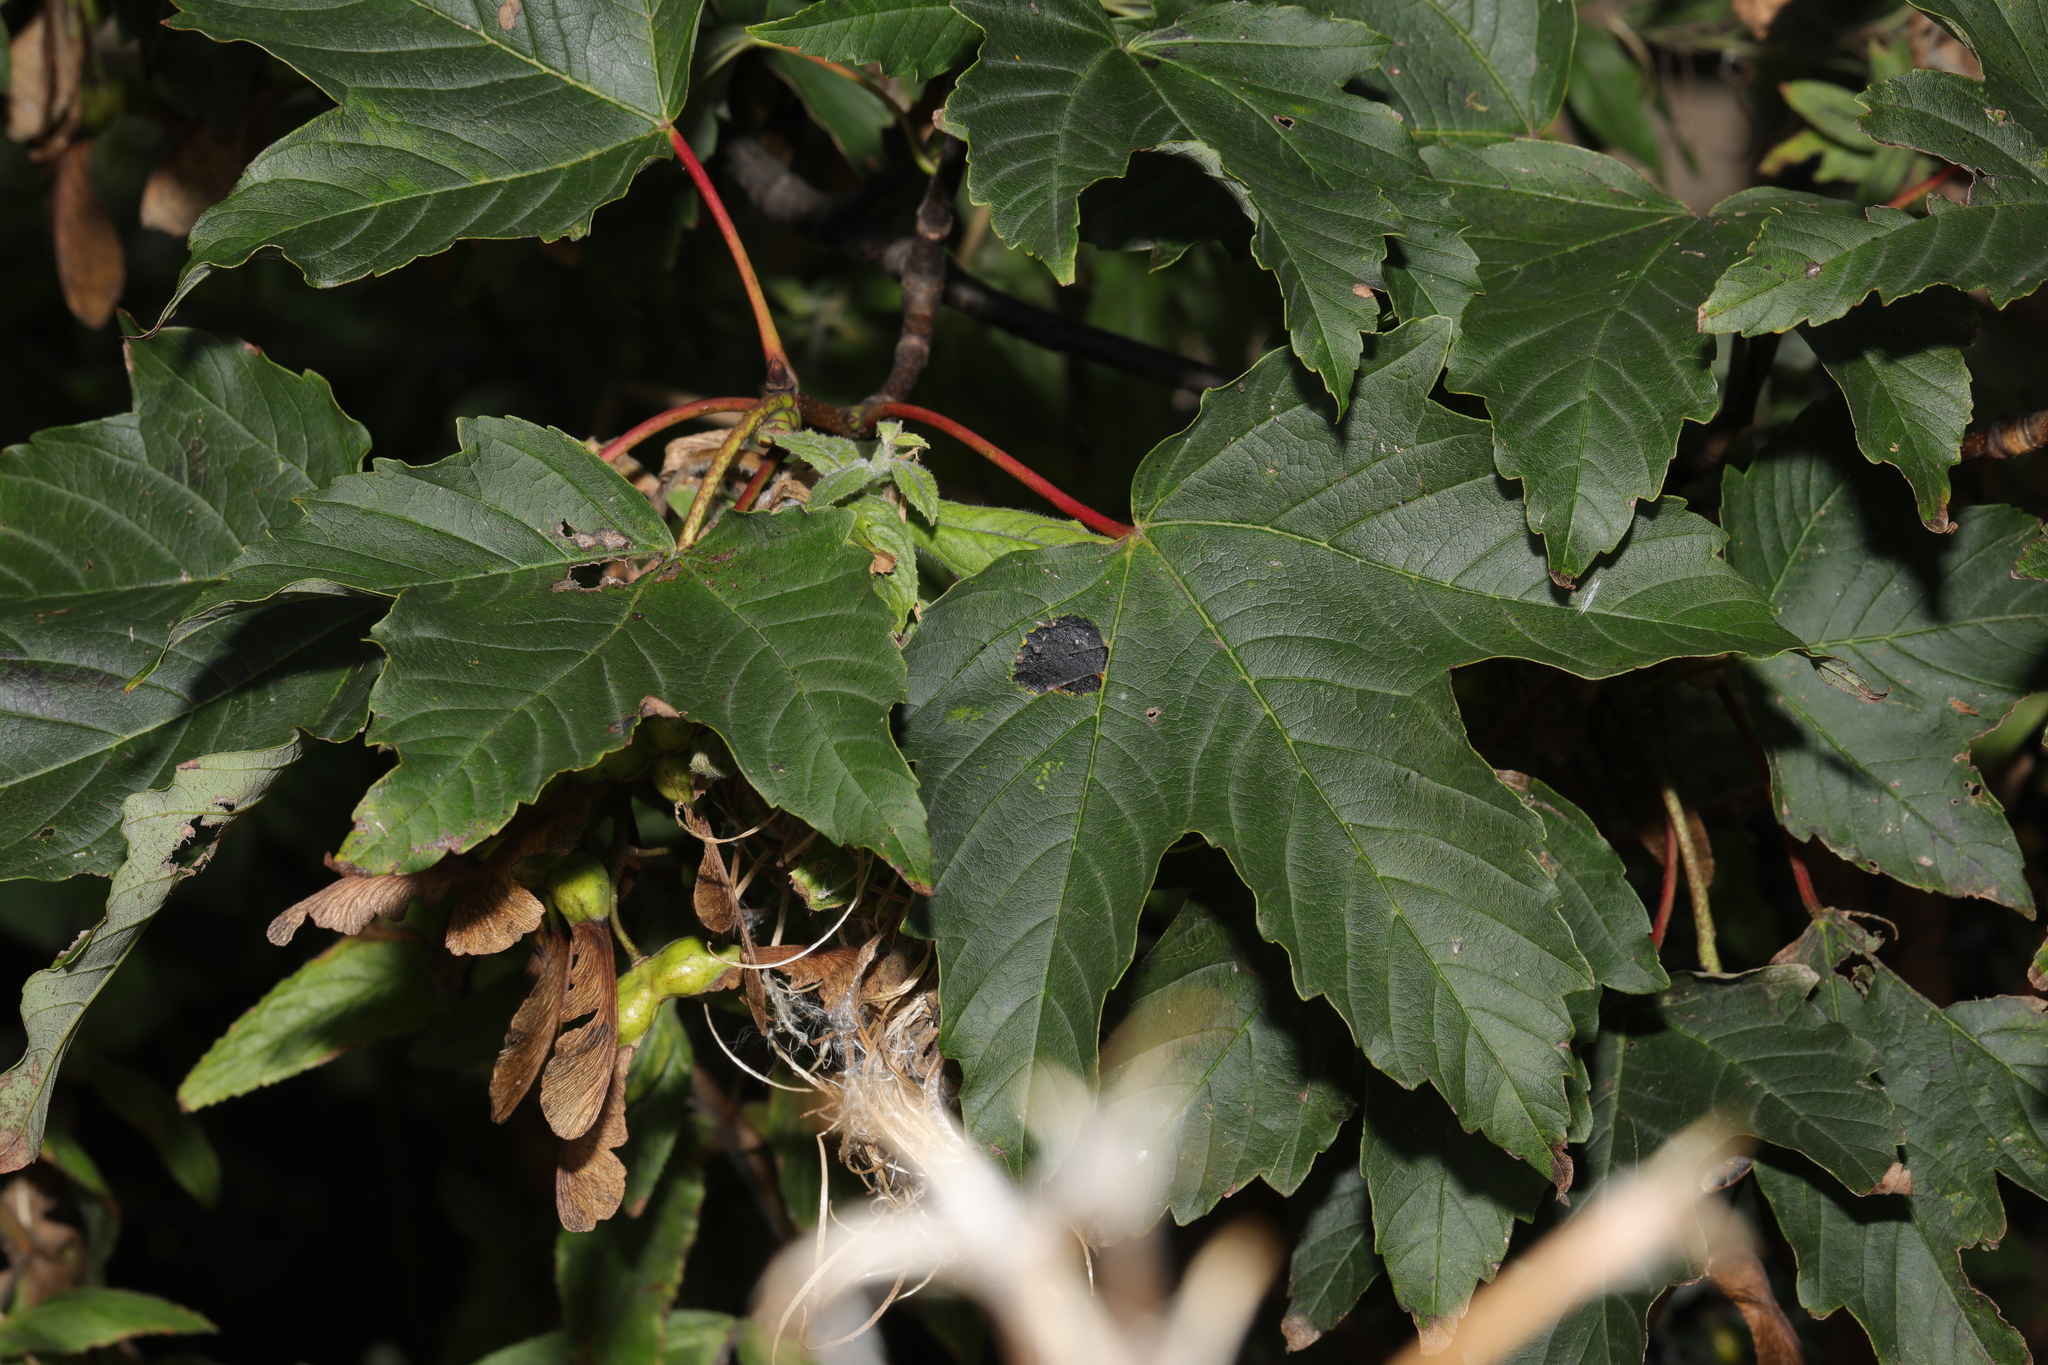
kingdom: Plantae
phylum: Tracheophyta
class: Magnoliopsida
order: Sapindales
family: Sapindaceae
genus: Acer
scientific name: Acer pseudoplatanus
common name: Sycamore
